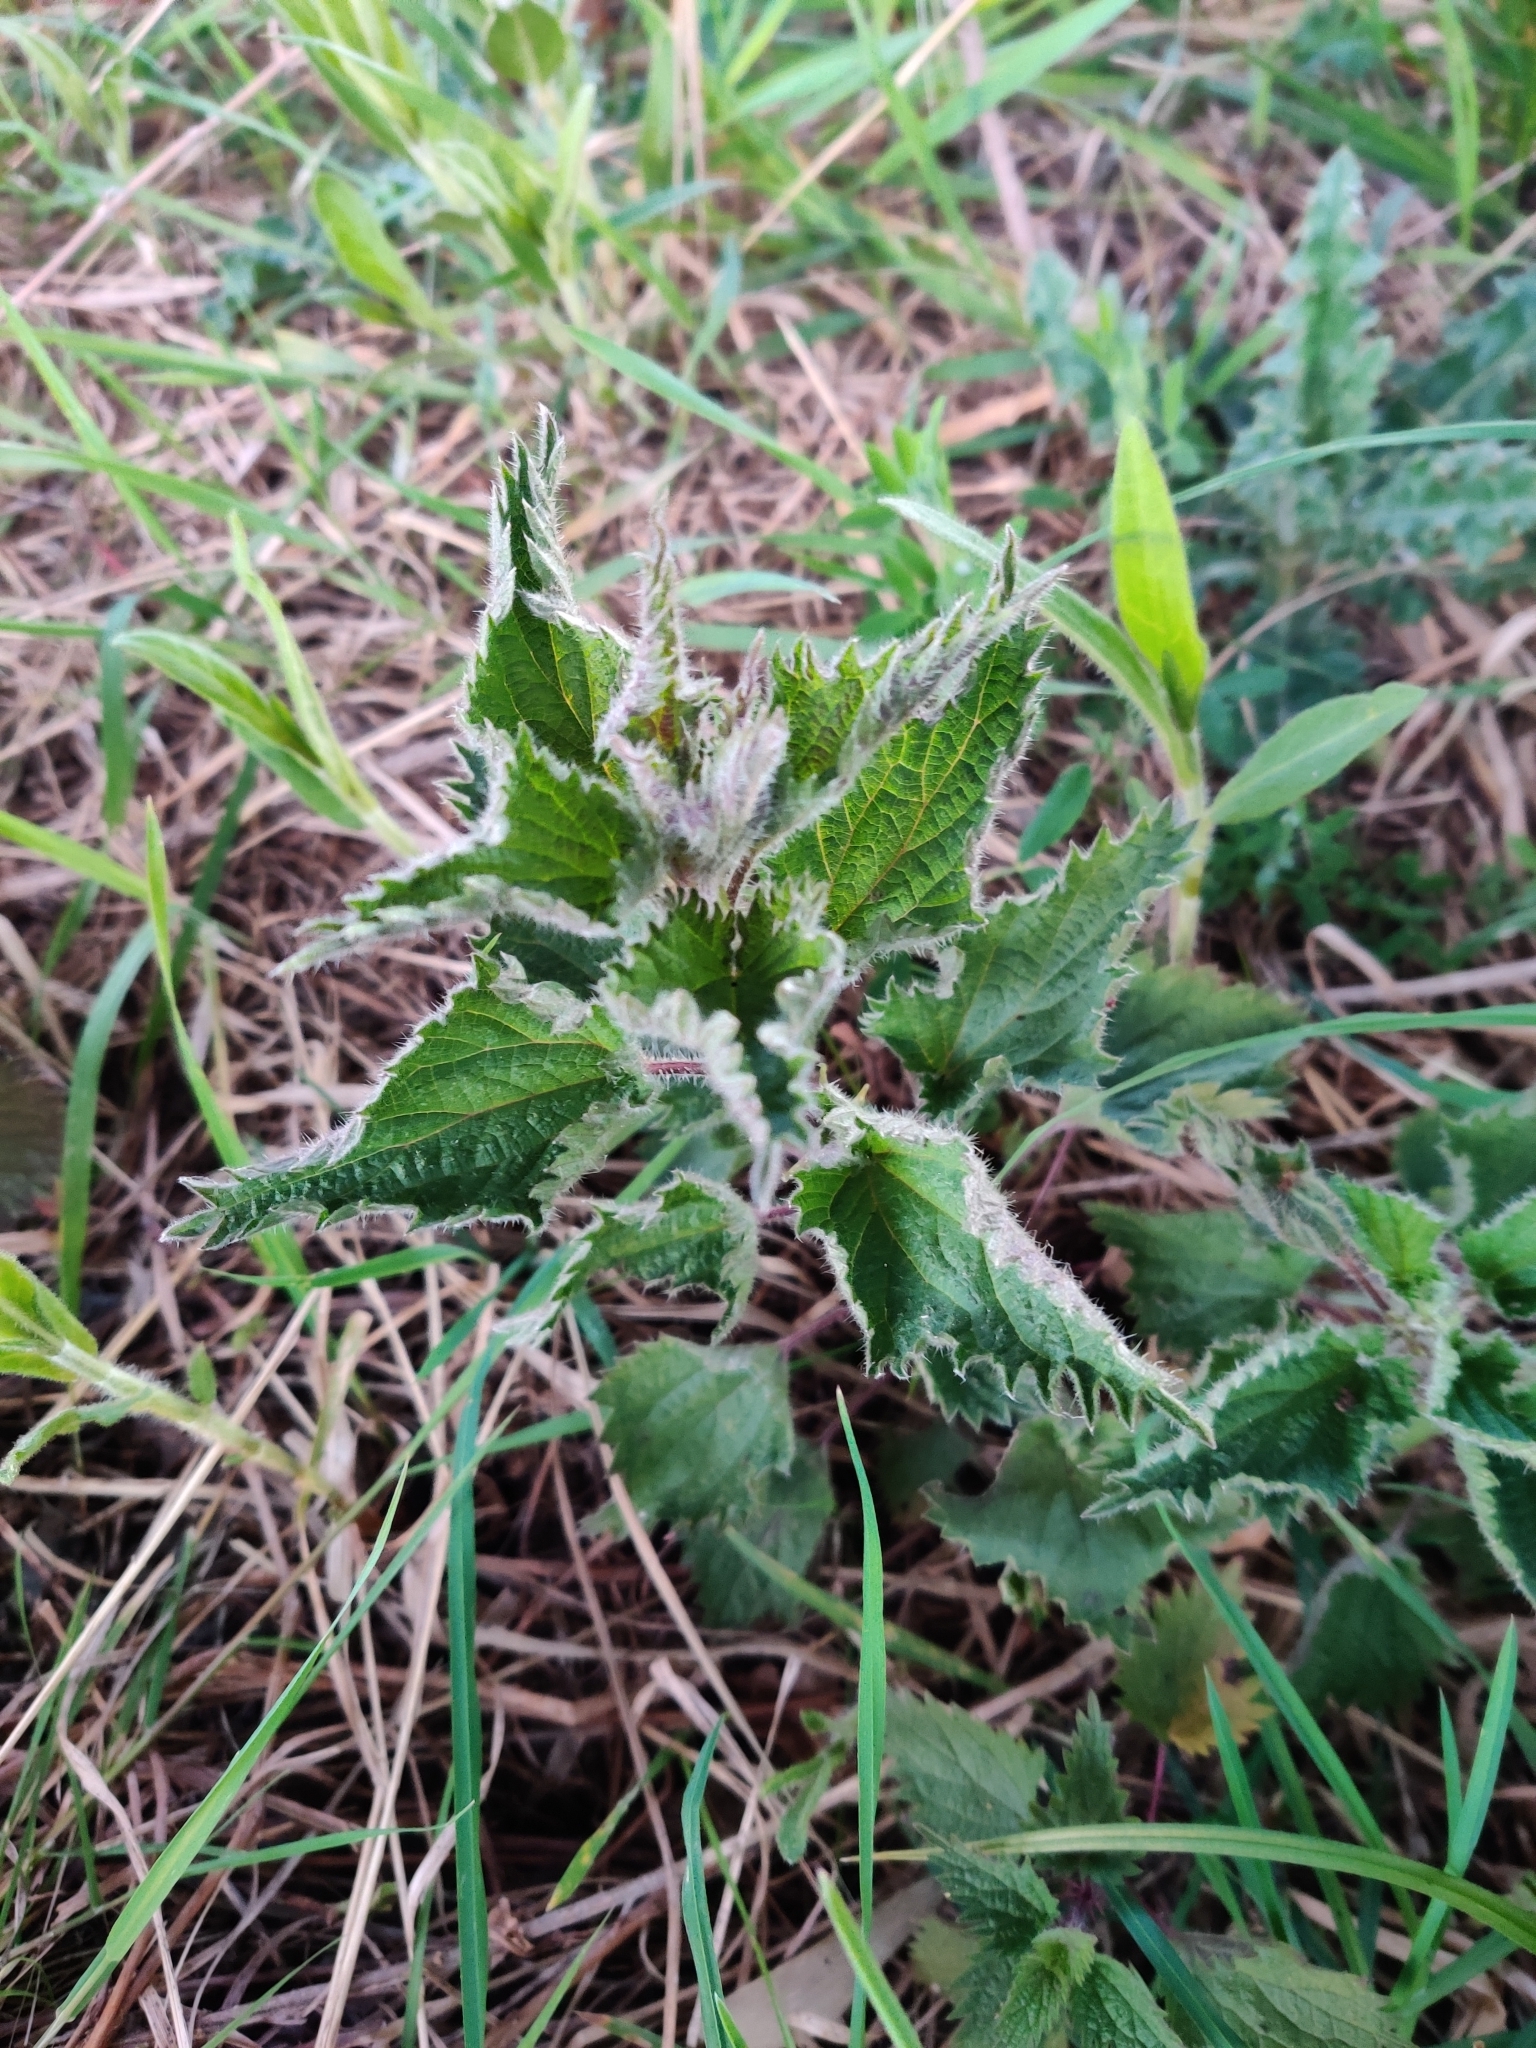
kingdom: Plantae
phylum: Tracheophyta
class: Magnoliopsida
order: Rosales
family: Urticaceae
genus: Urtica
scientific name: Urtica dioica
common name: Common nettle
